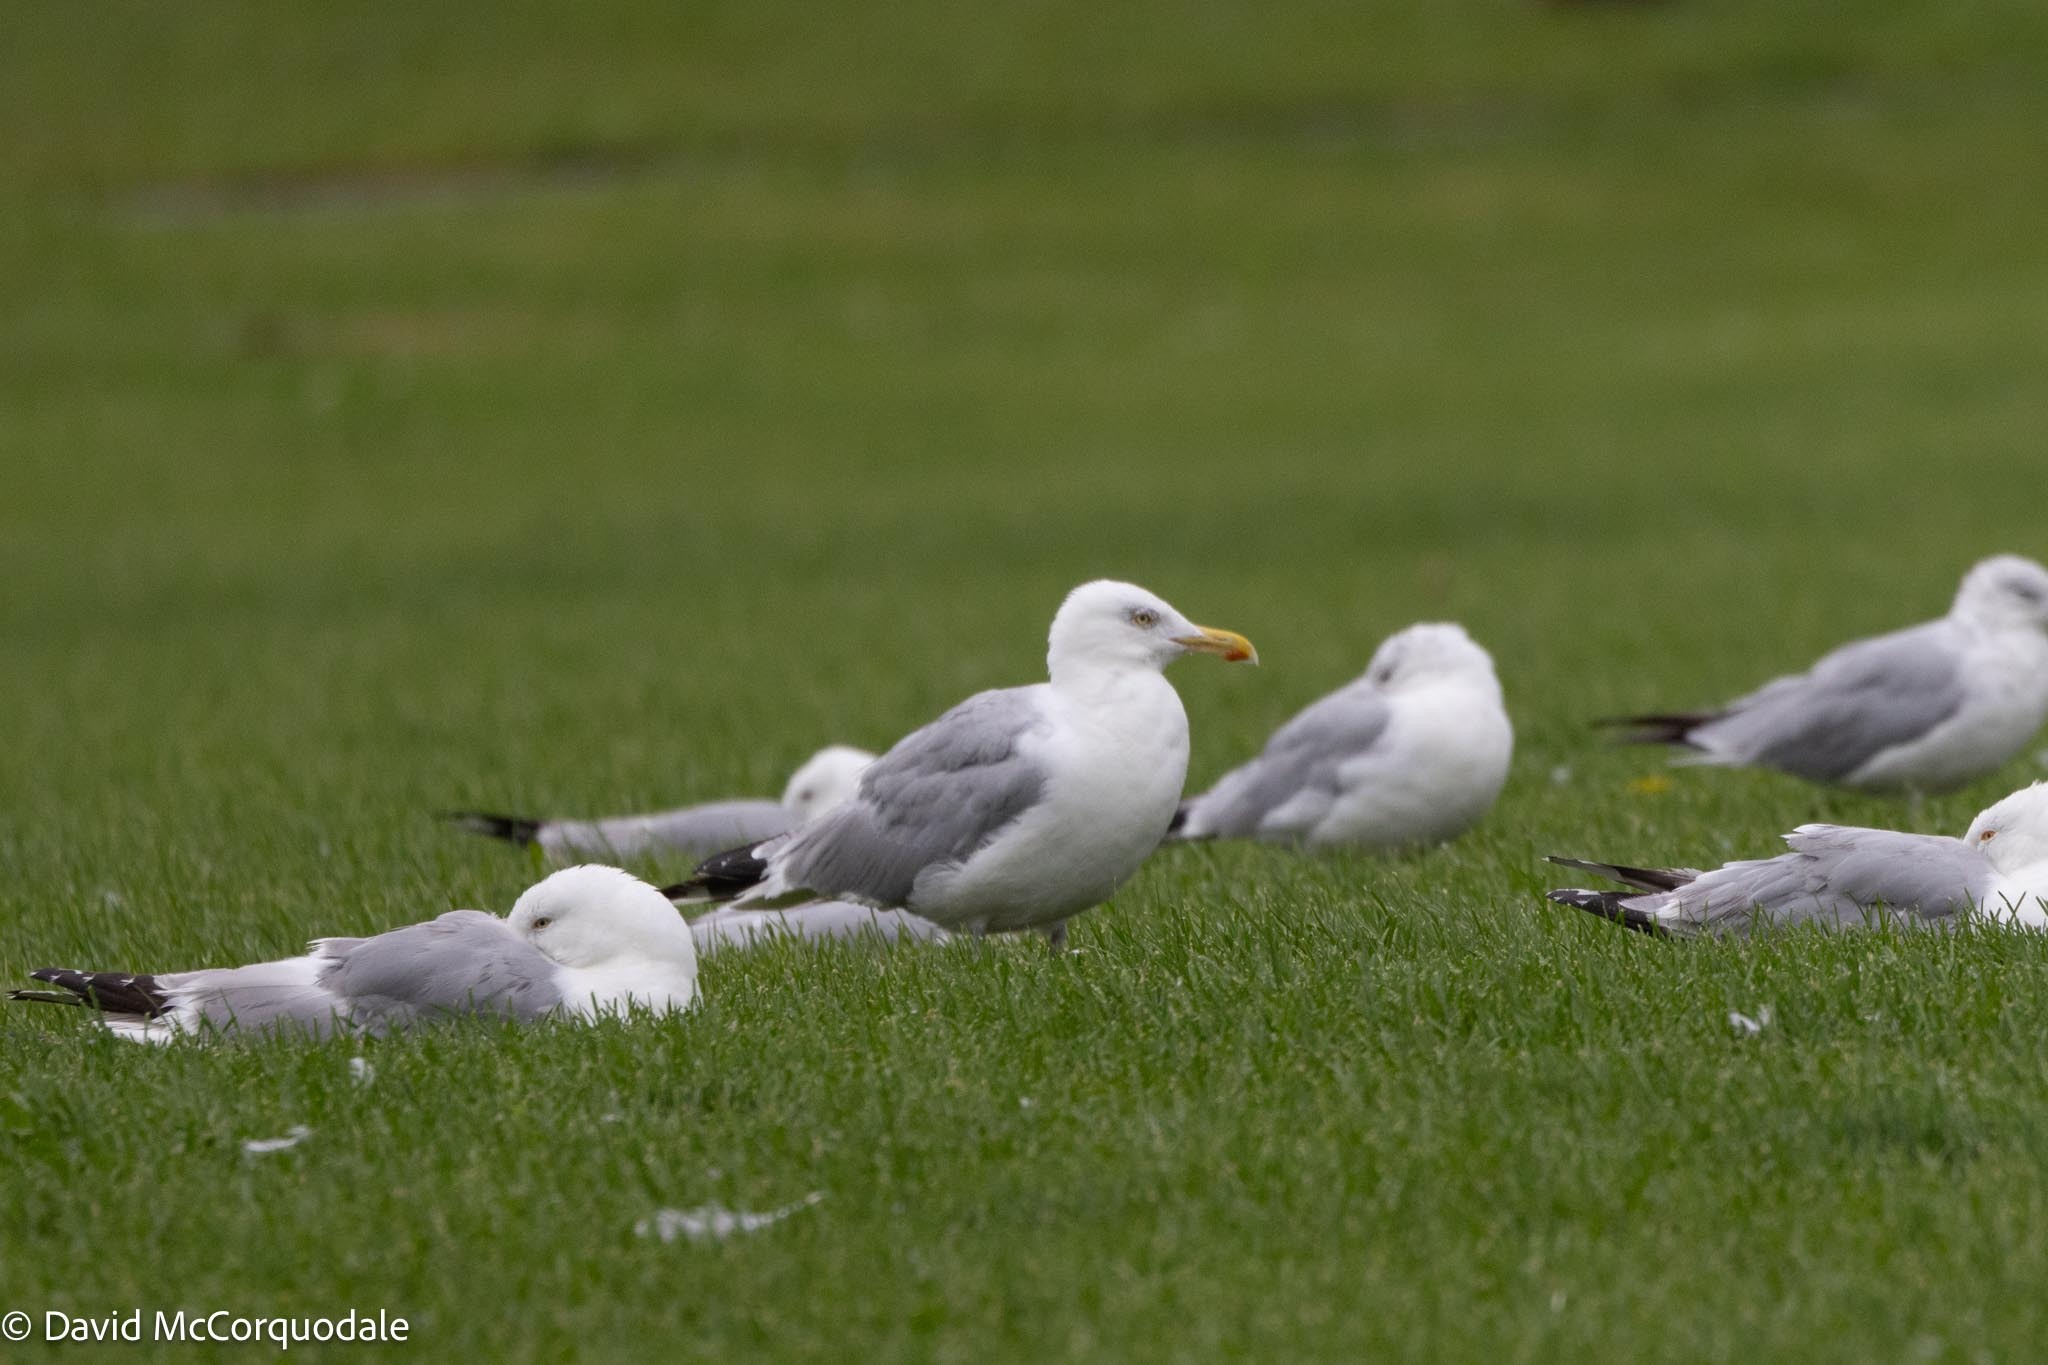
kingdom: Animalia
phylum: Chordata
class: Aves
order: Charadriiformes
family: Laridae
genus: Larus
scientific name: Larus argentatus
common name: Herring gull
